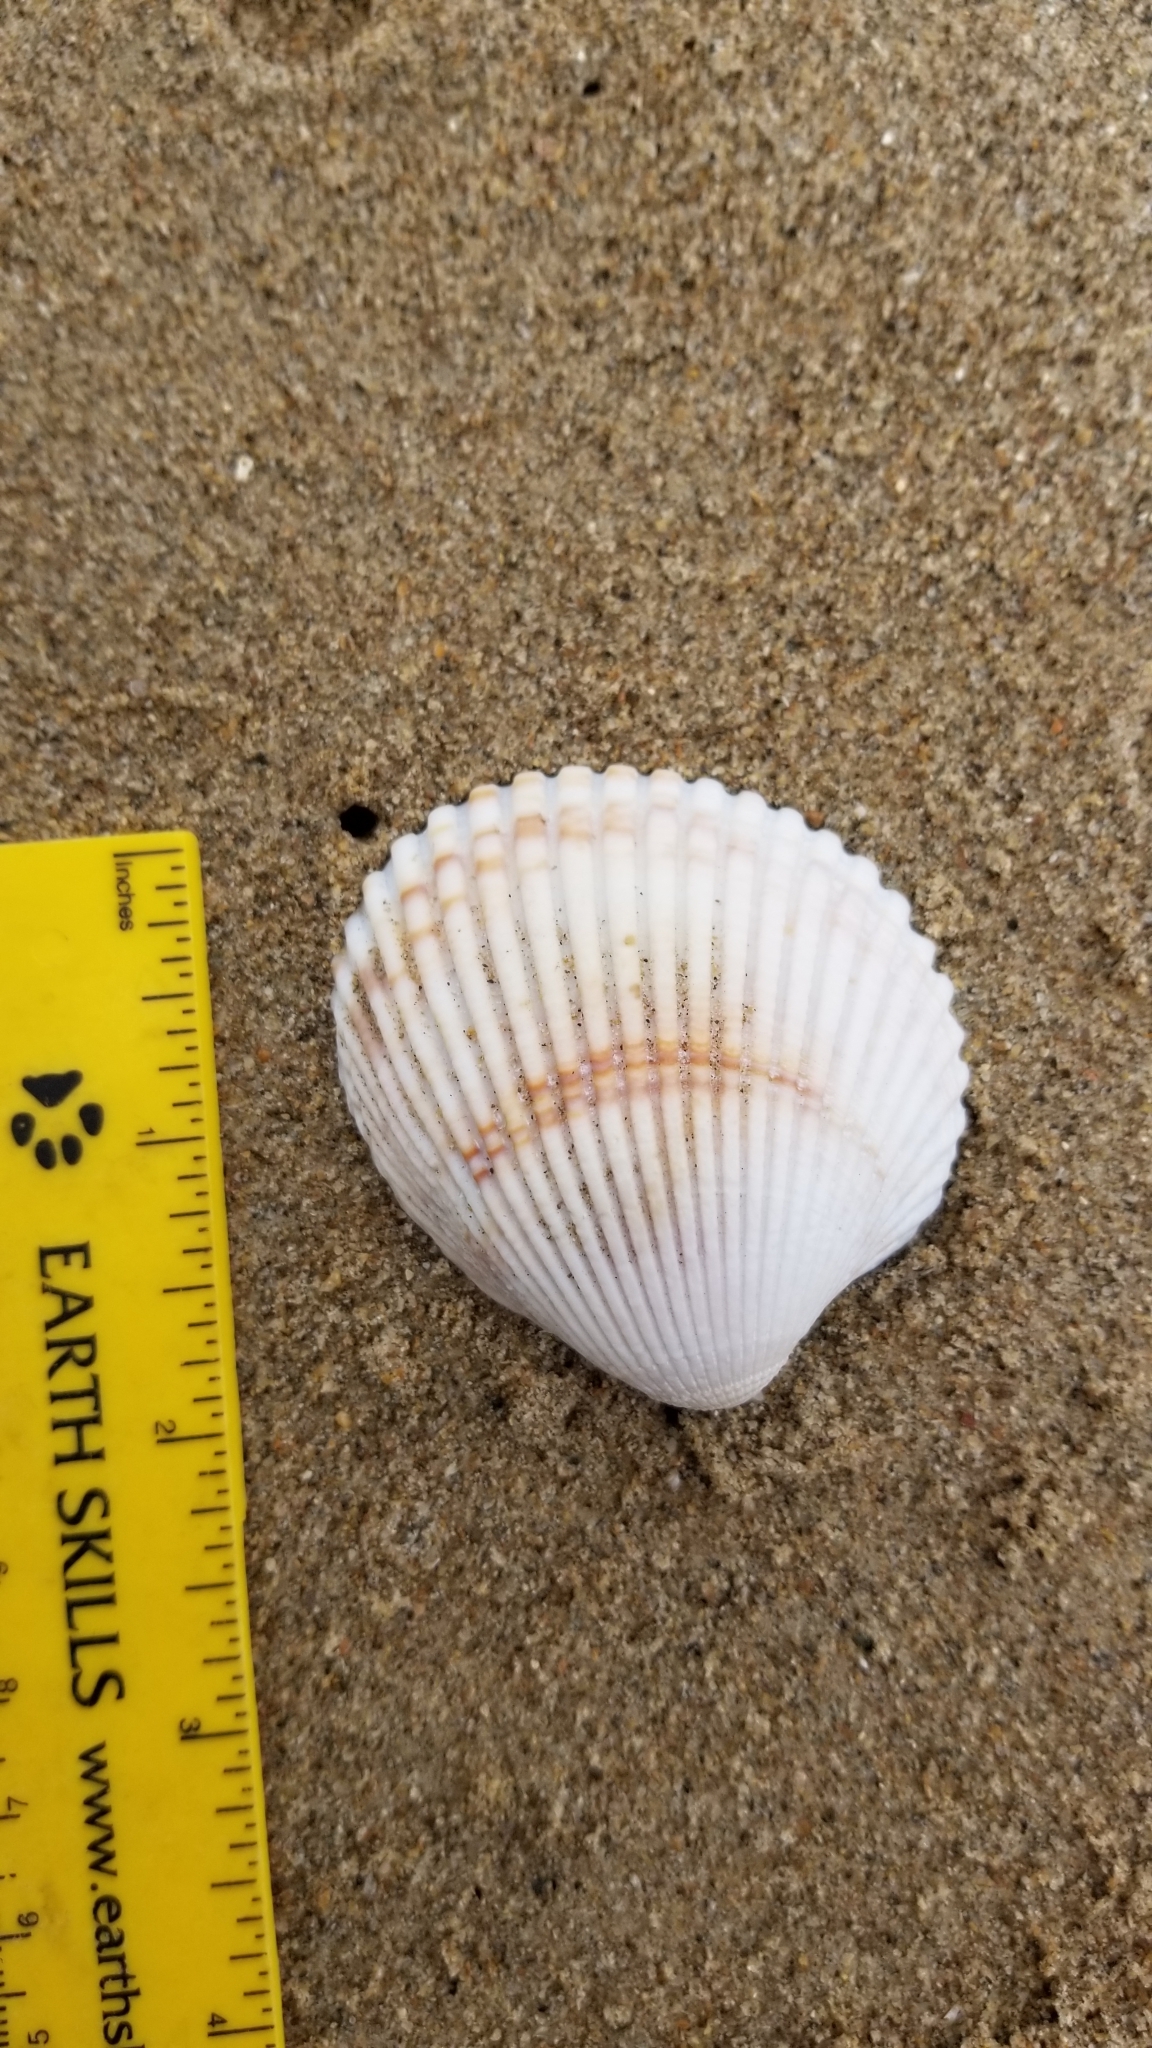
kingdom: Animalia
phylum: Mollusca
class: Bivalvia
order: Cardiida
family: Cardiidae
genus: Clinocardium
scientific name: Clinocardium nuttallii
